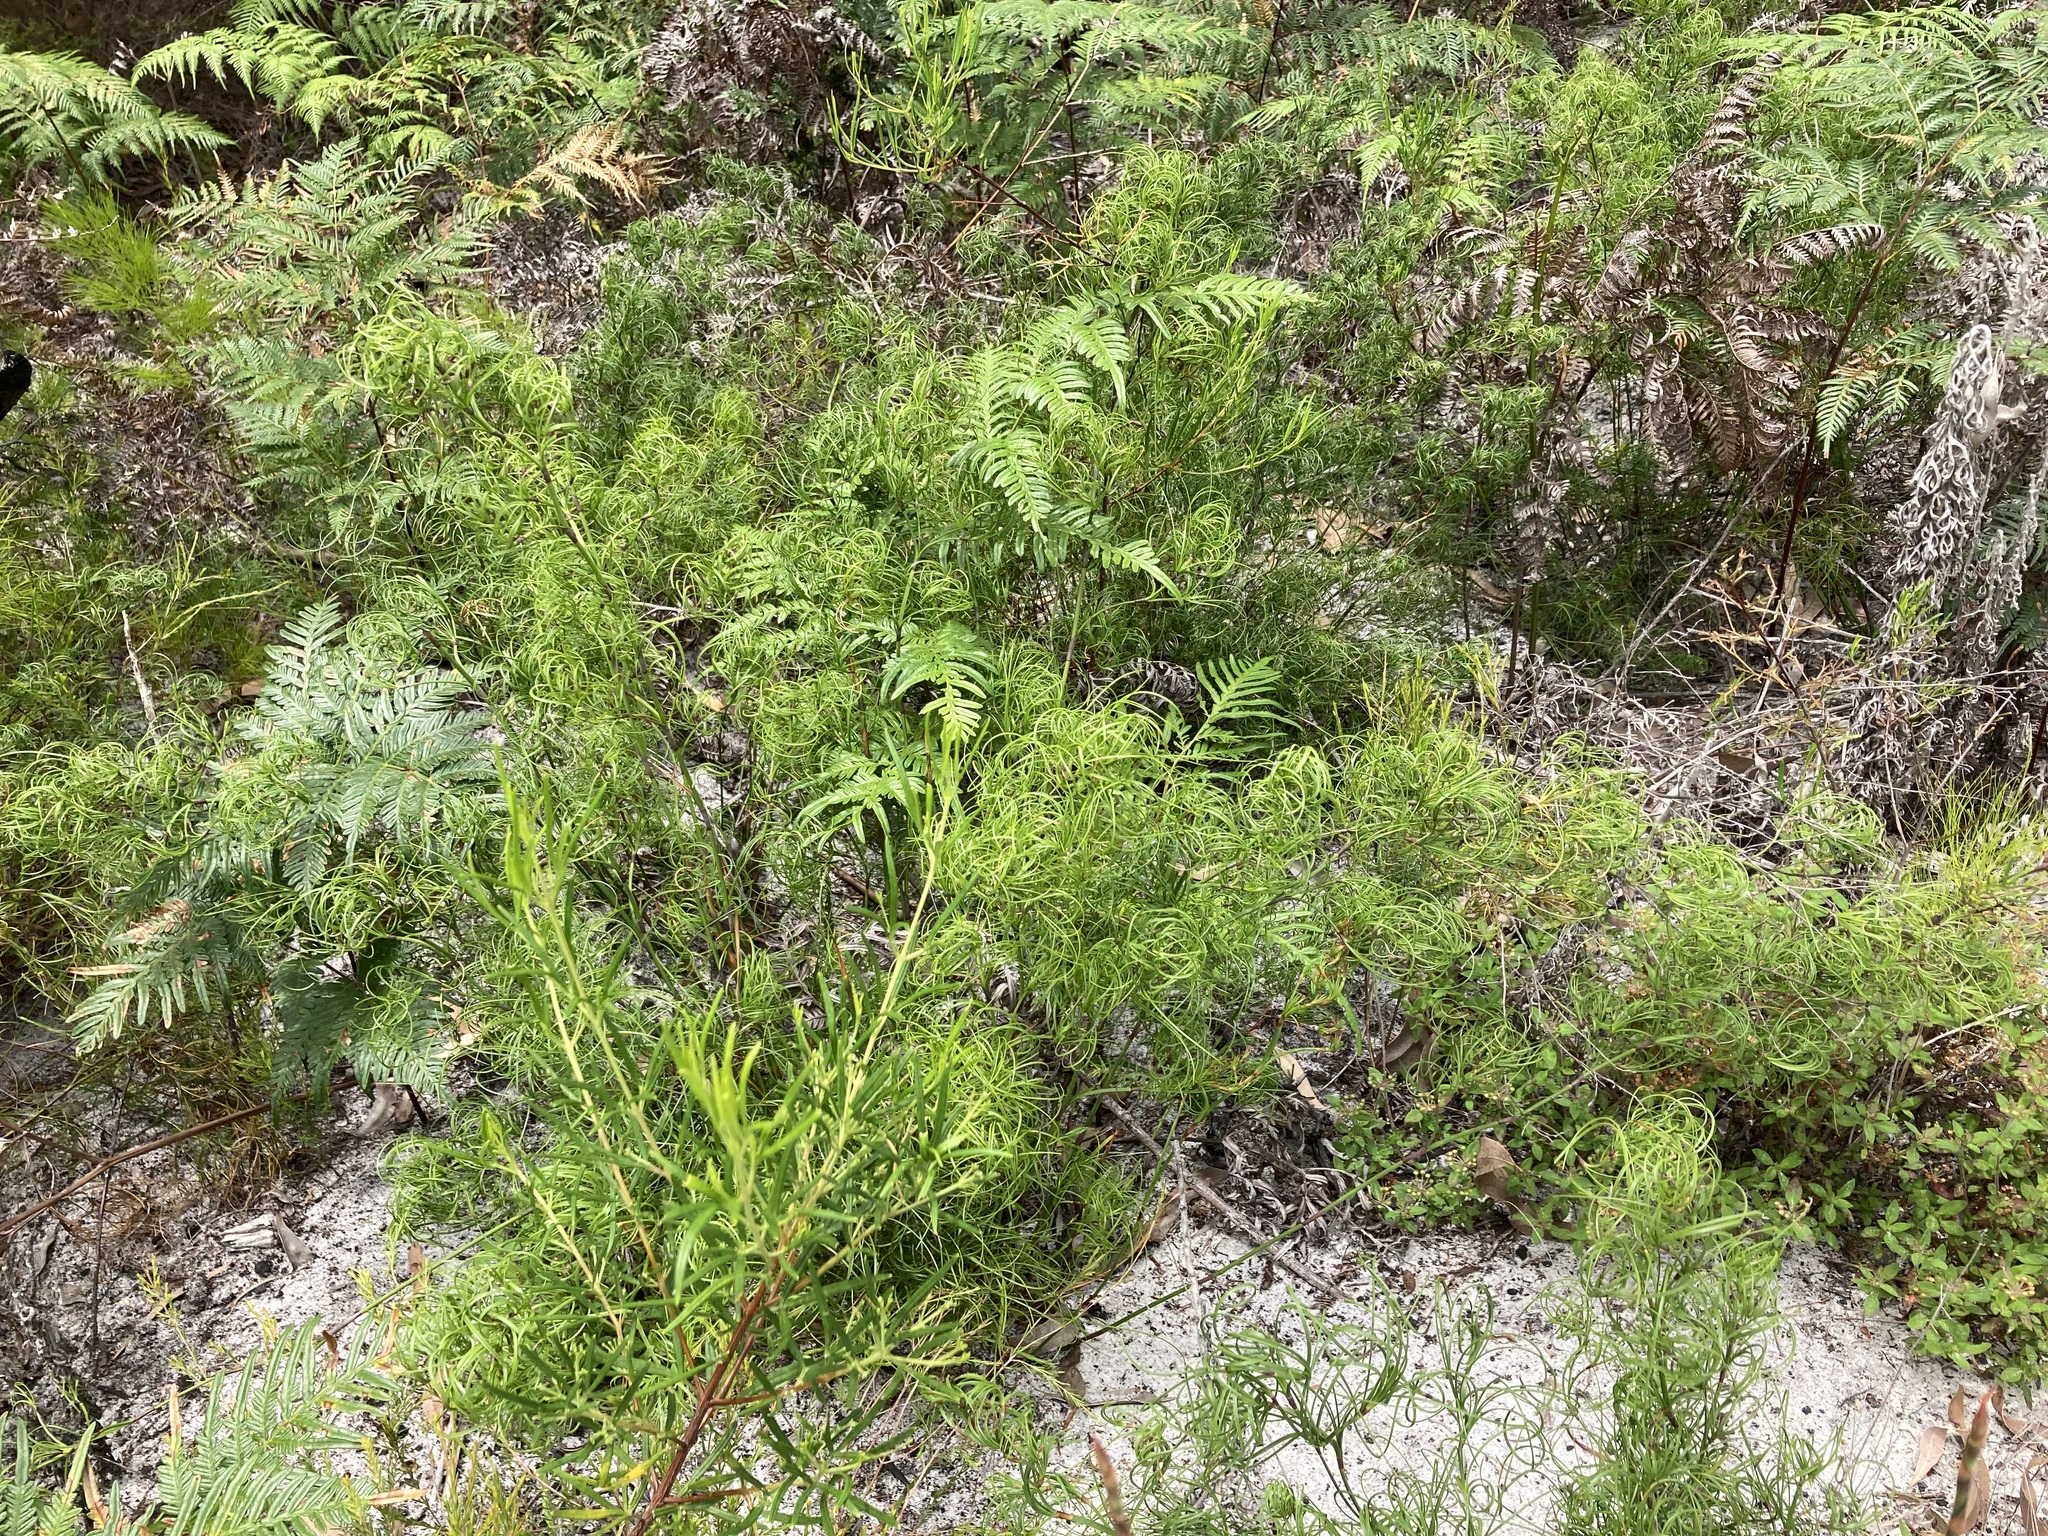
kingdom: Plantae
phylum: Tracheophyta
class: Liliopsida
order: Poales
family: Cyperaceae
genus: Caustis
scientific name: Caustis flexuosa
